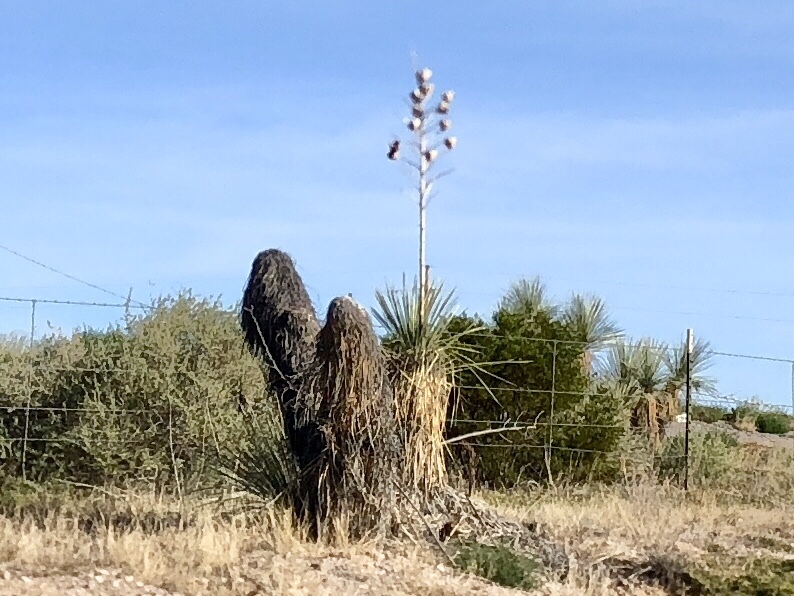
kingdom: Plantae
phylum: Tracheophyta
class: Liliopsida
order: Asparagales
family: Asparagaceae
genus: Yucca
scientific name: Yucca elata
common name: Palmella
